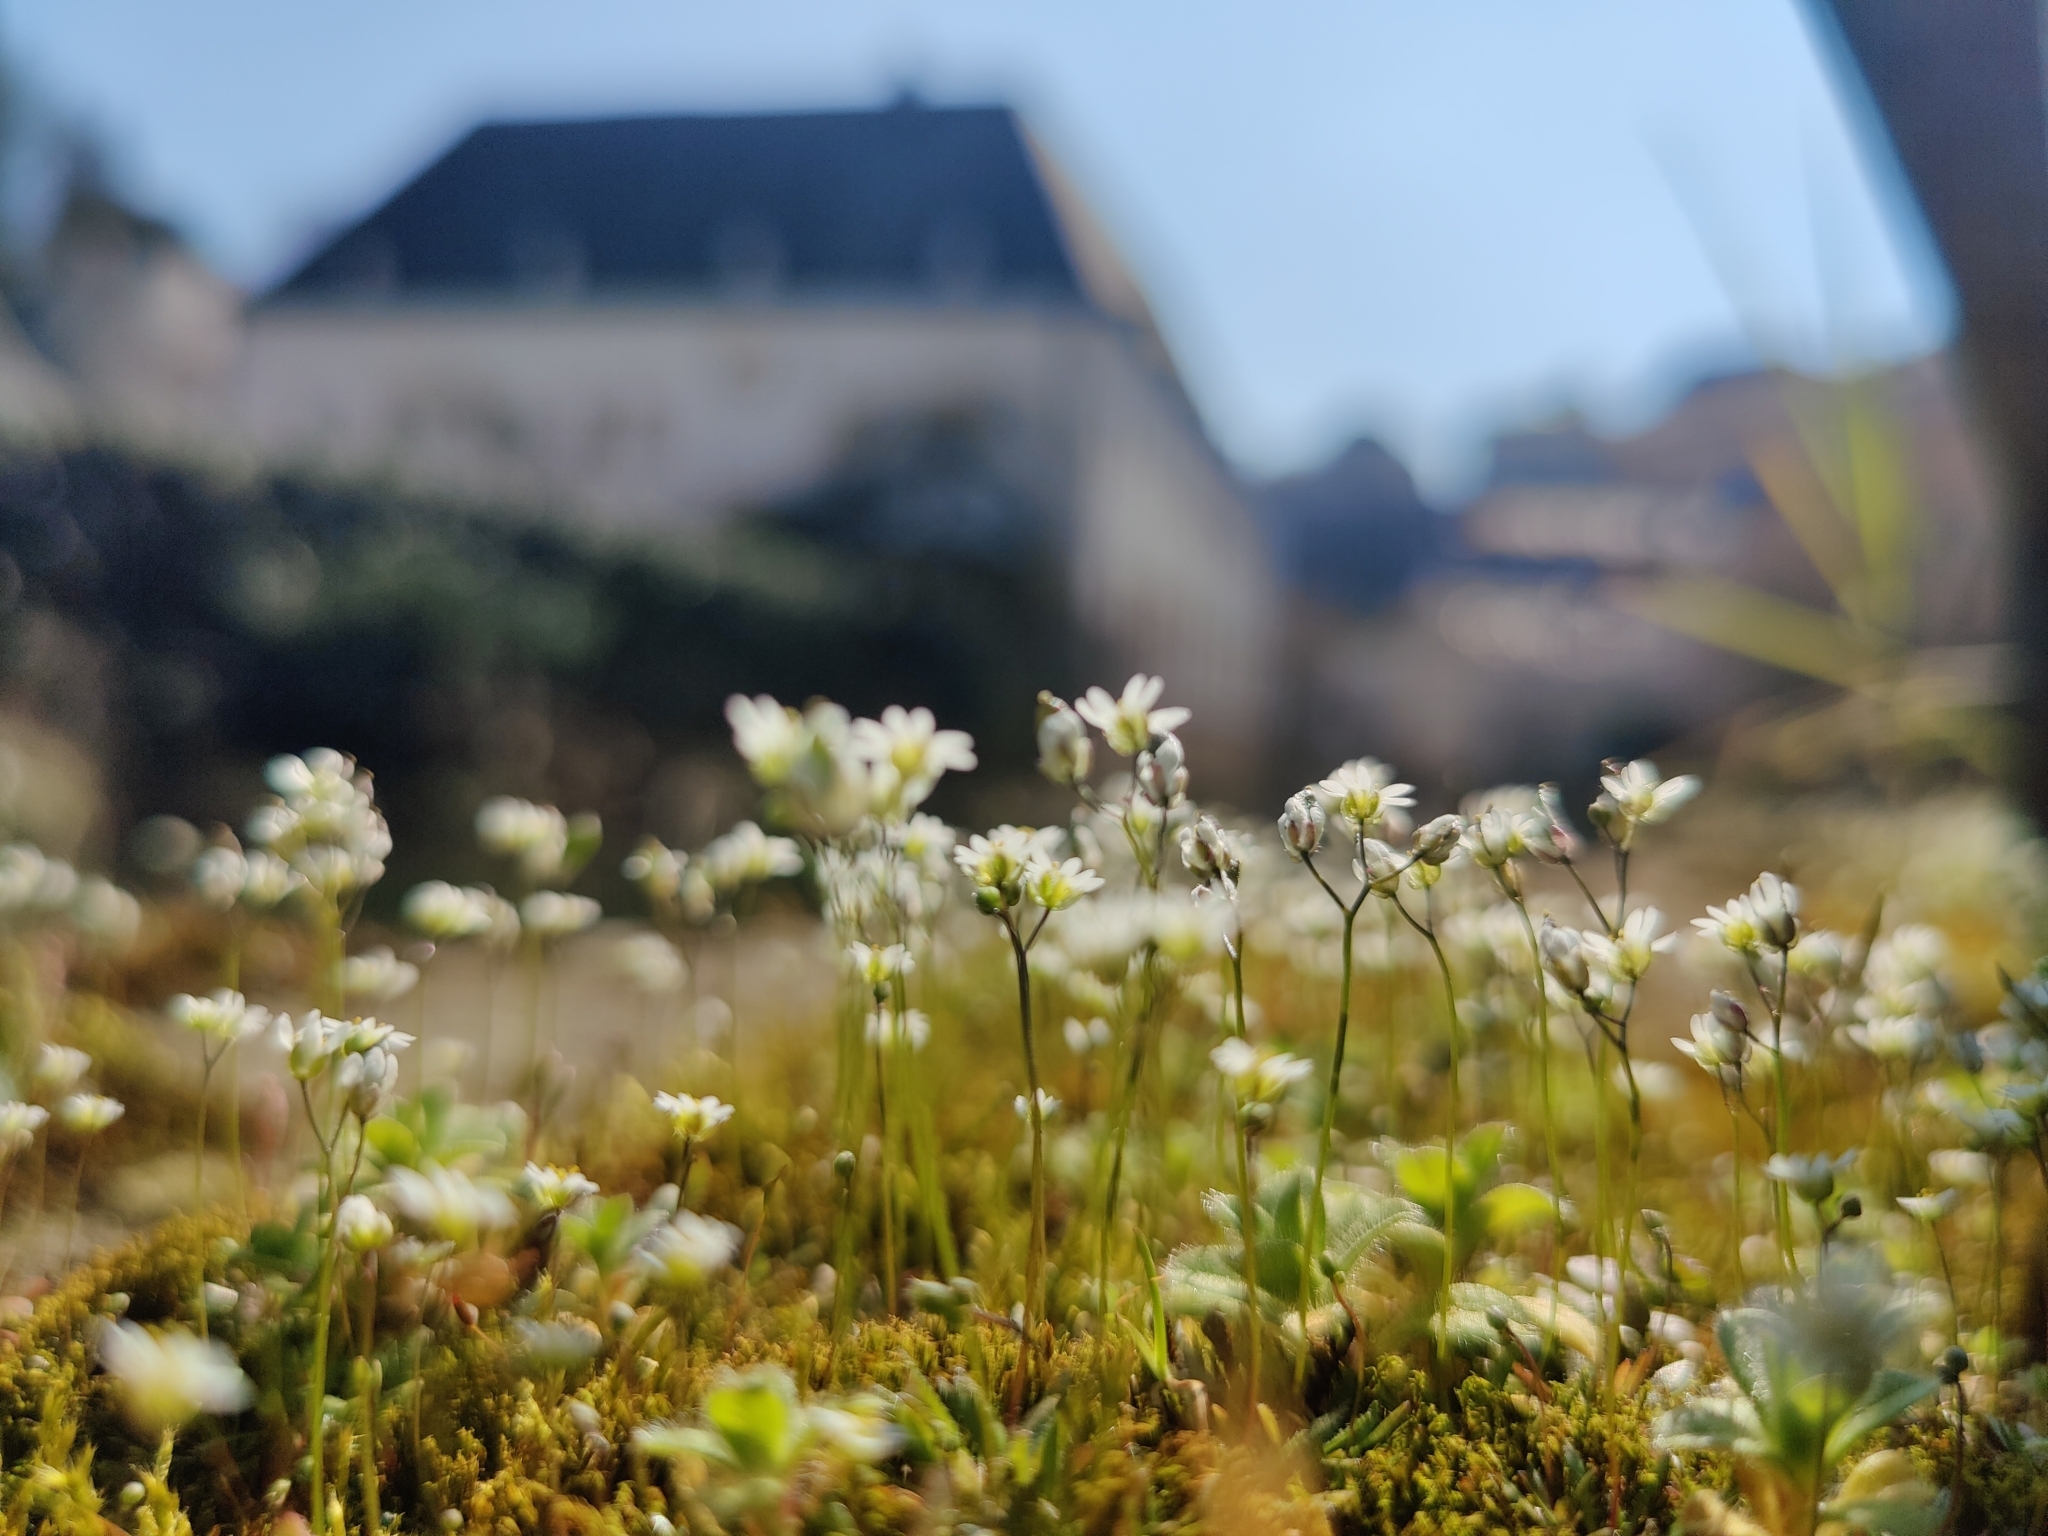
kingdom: Plantae
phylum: Tracheophyta
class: Magnoliopsida
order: Brassicales
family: Brassicaceae
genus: Draba
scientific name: Draba verna
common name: Spring draba
